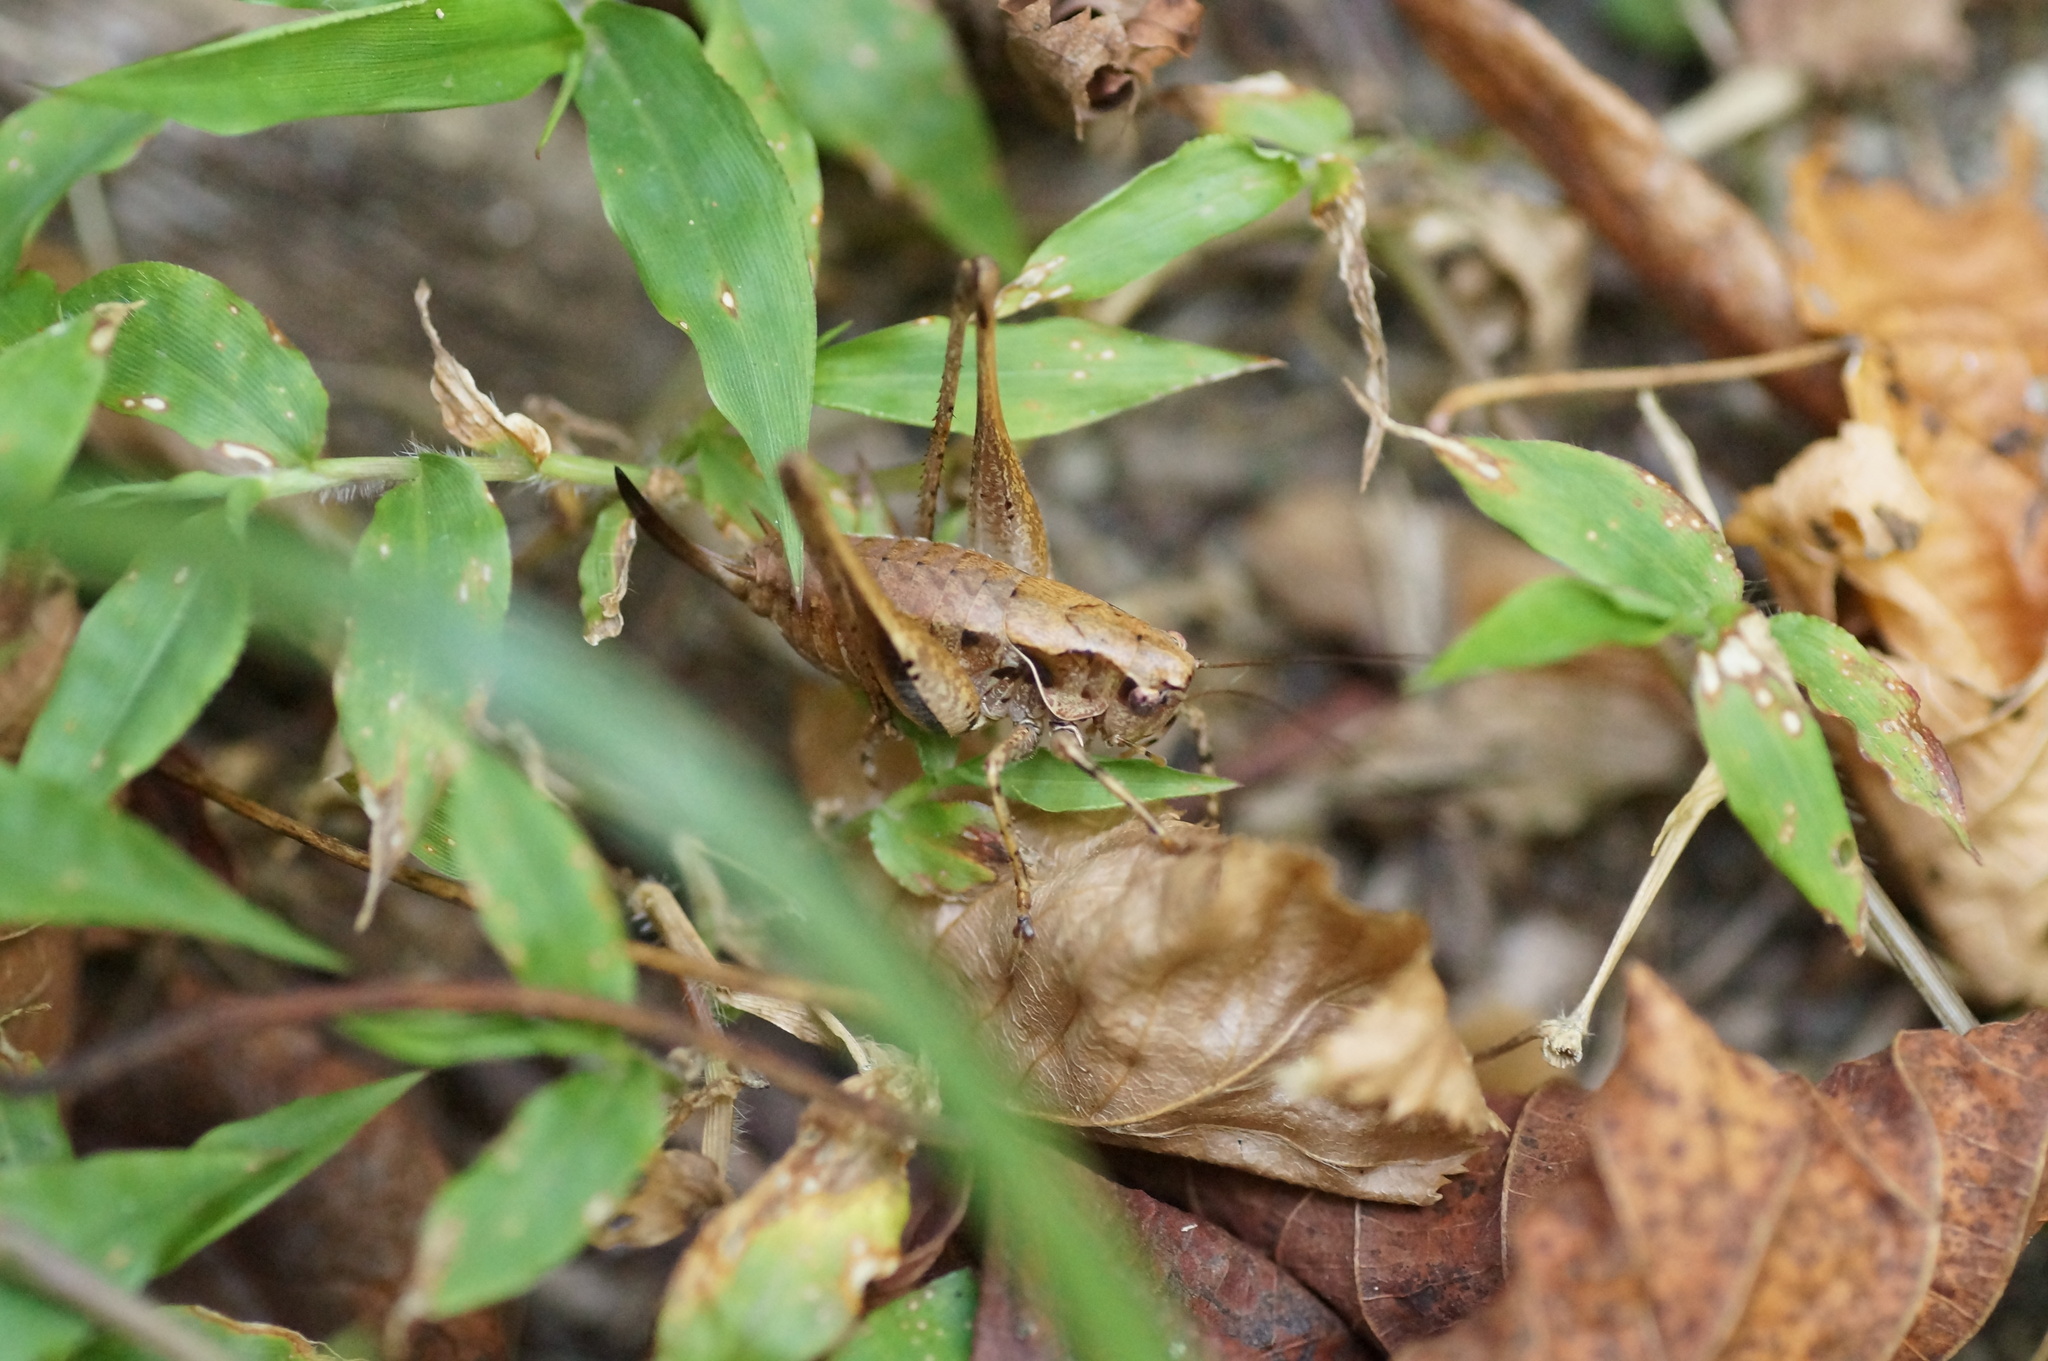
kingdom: Animalia
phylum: Arthropoda
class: Insecta
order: Orthoptera
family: Tettigoniidae
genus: Pholidoptera
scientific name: Pholidoptera griseoaptera
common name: Dark bush-cricket
